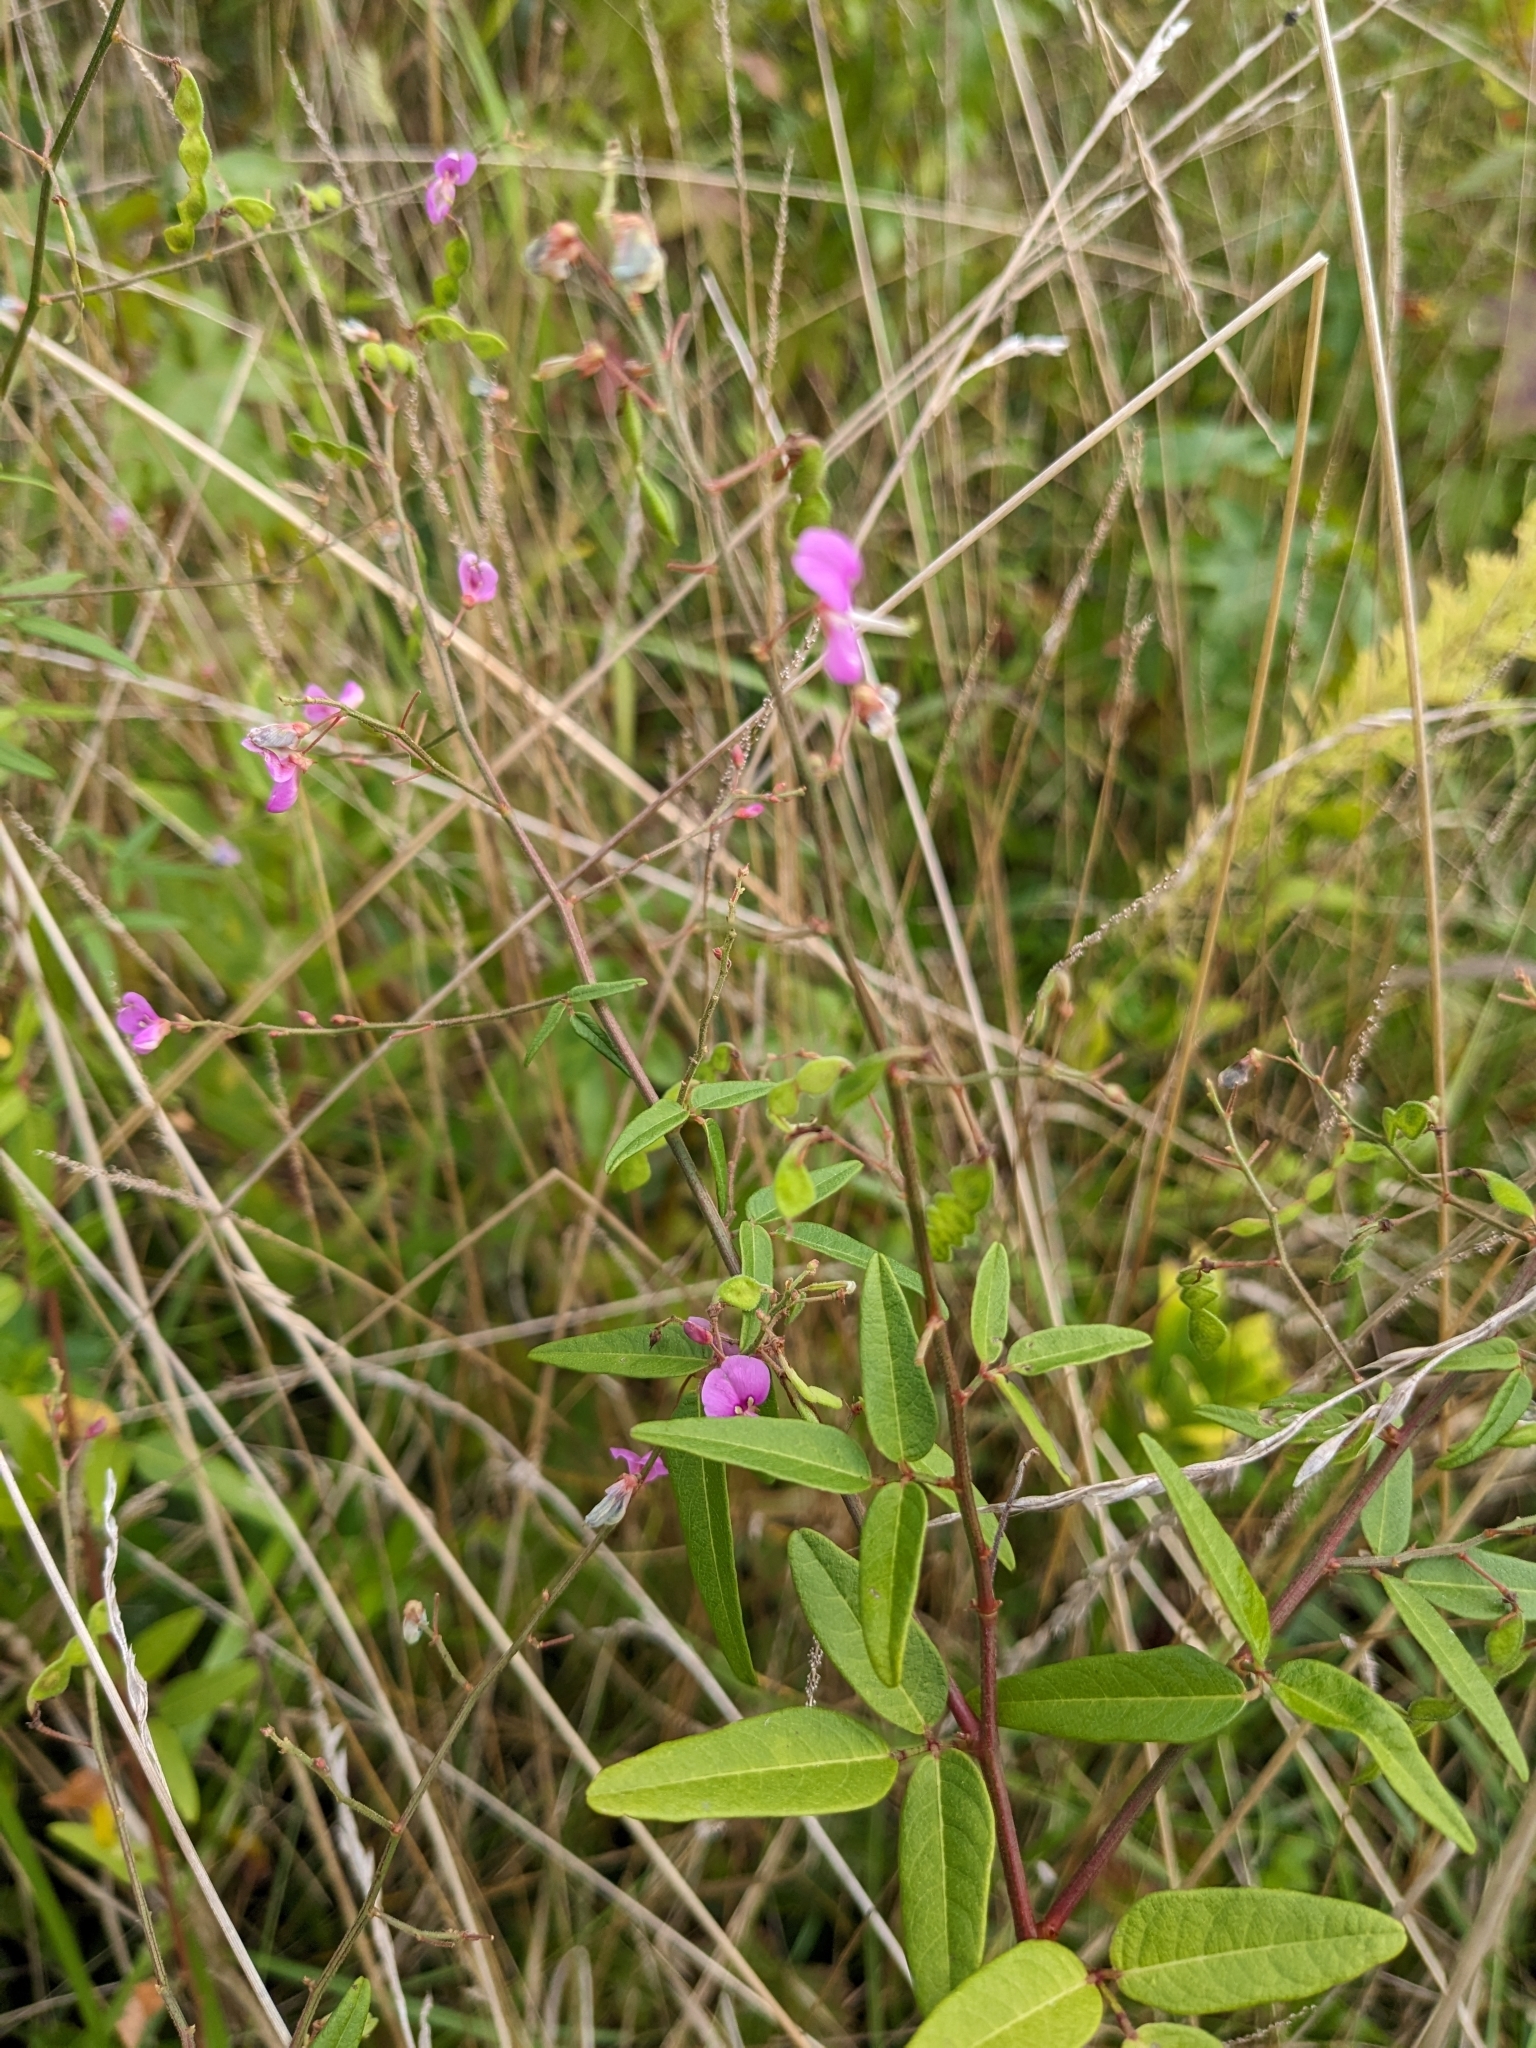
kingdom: Plantae
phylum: Tracheophyta
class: Magnoliopsida
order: Fabales
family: Fabaceae
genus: Desmodium
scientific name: Desmodium paniculatum
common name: Panicled tick-clover
